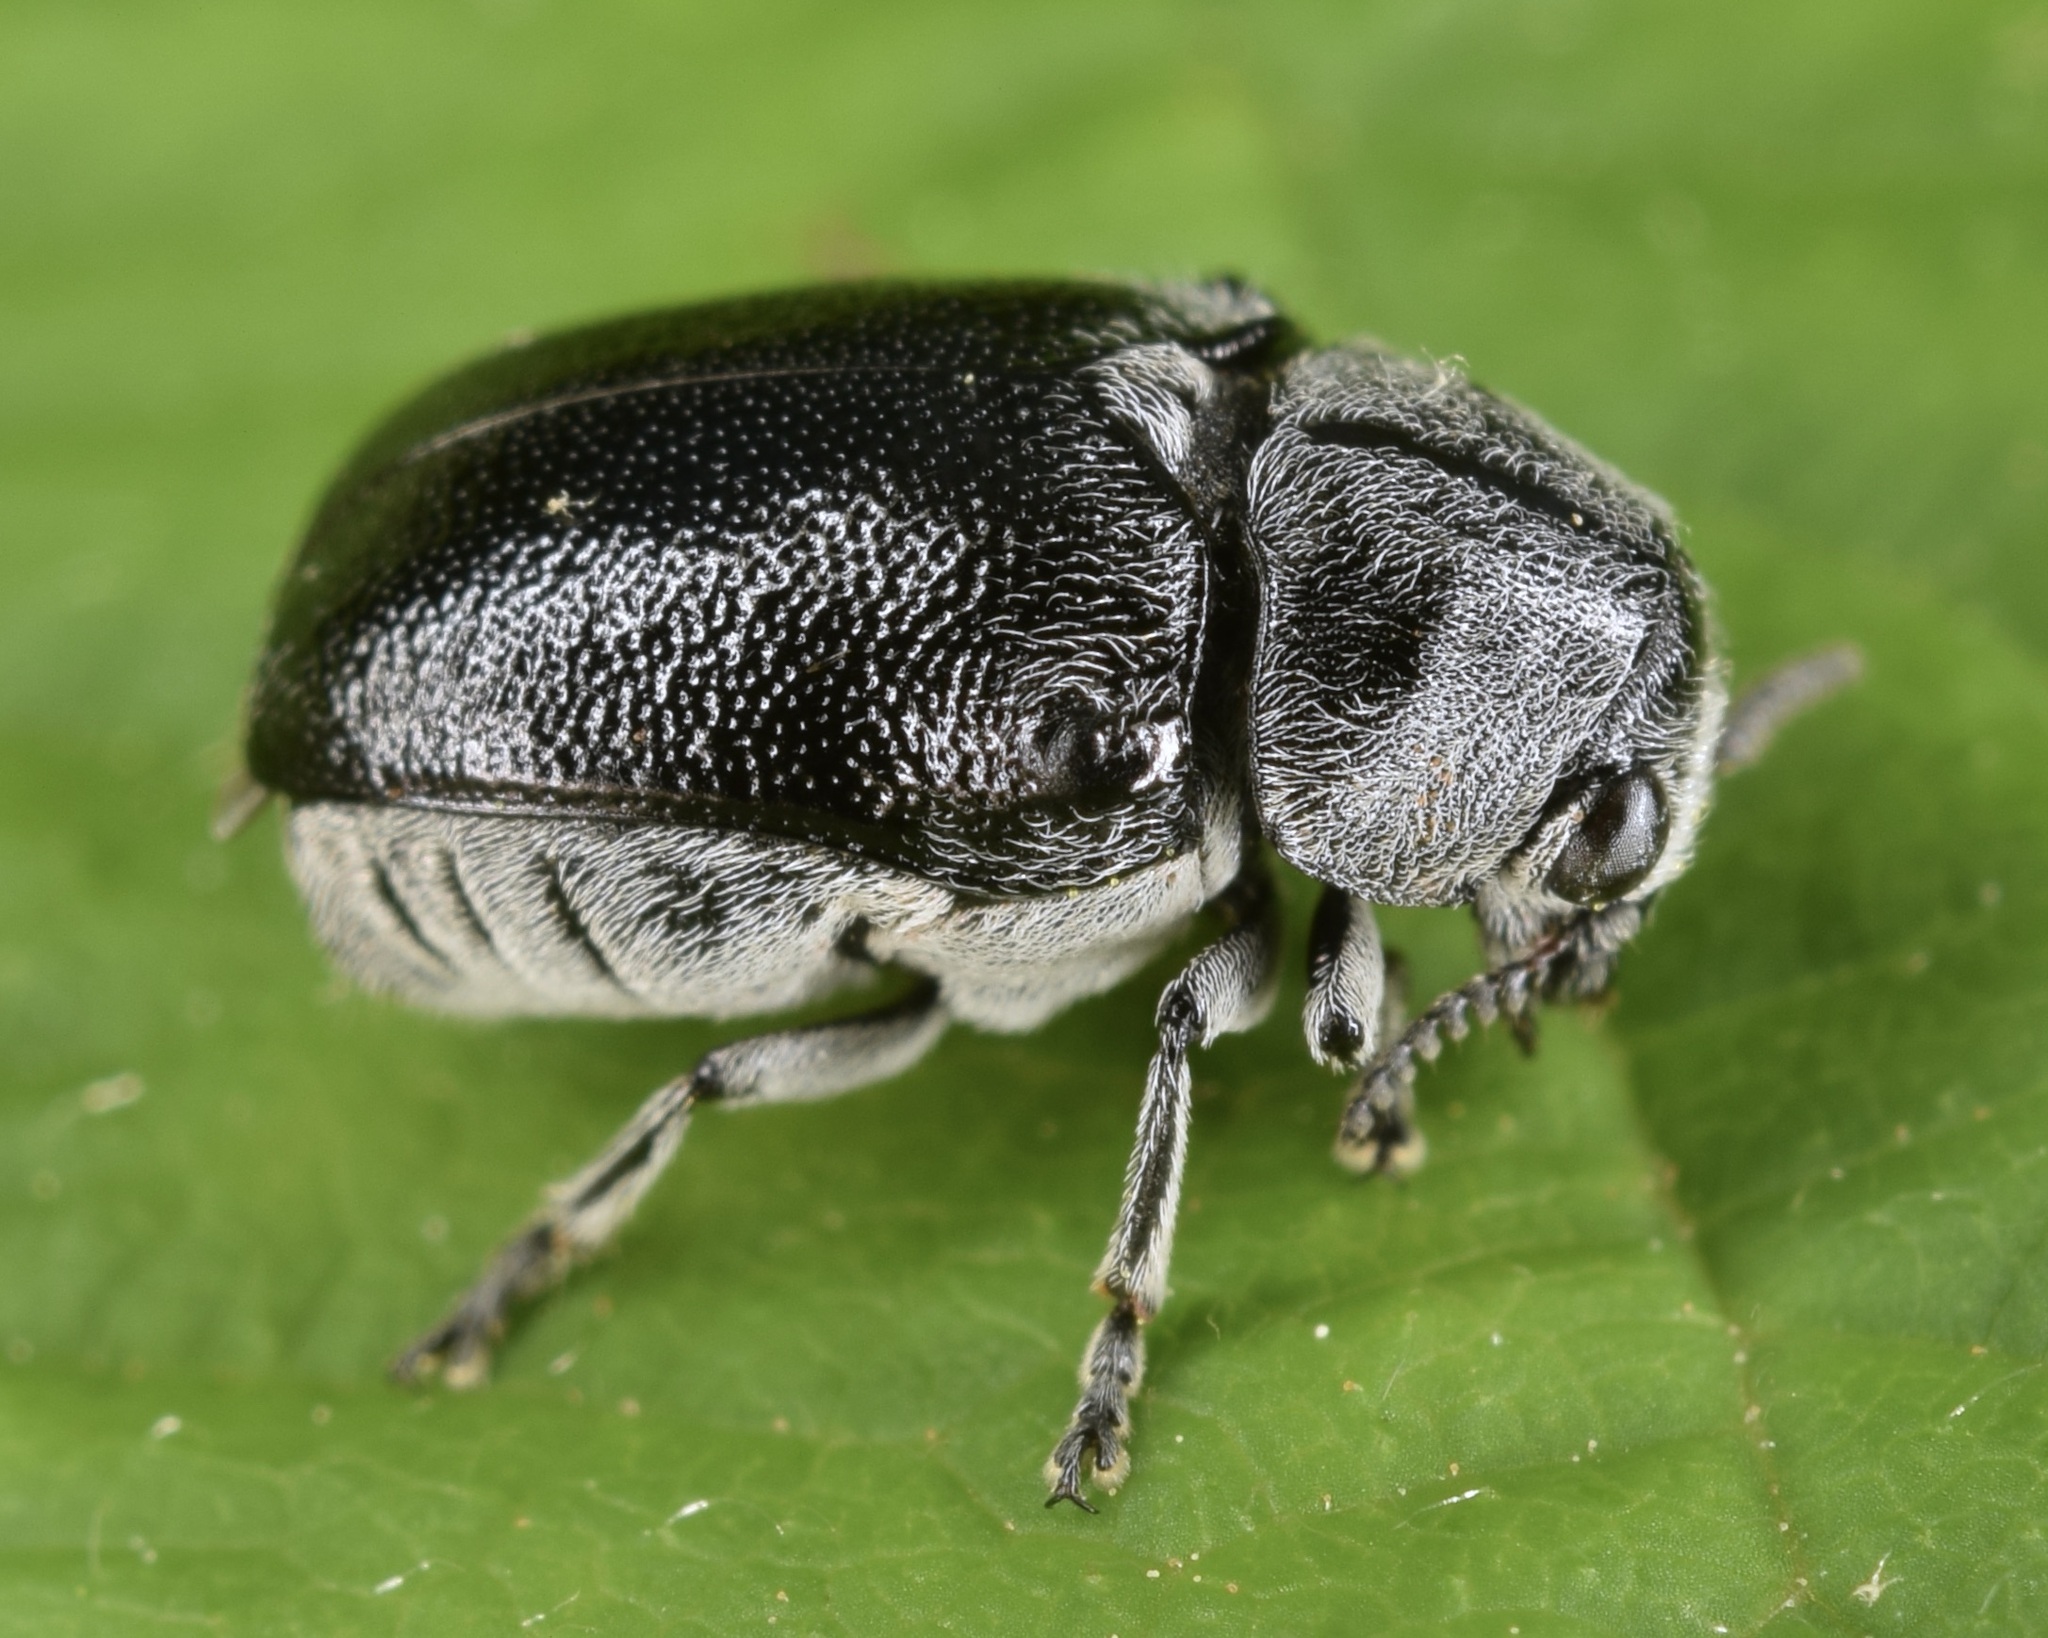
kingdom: Animalia
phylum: Arthropoda
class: Insecta
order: Coleoptera
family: Chrysomelidae
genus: Coleothorpa
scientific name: Coleothorpa dominicana
